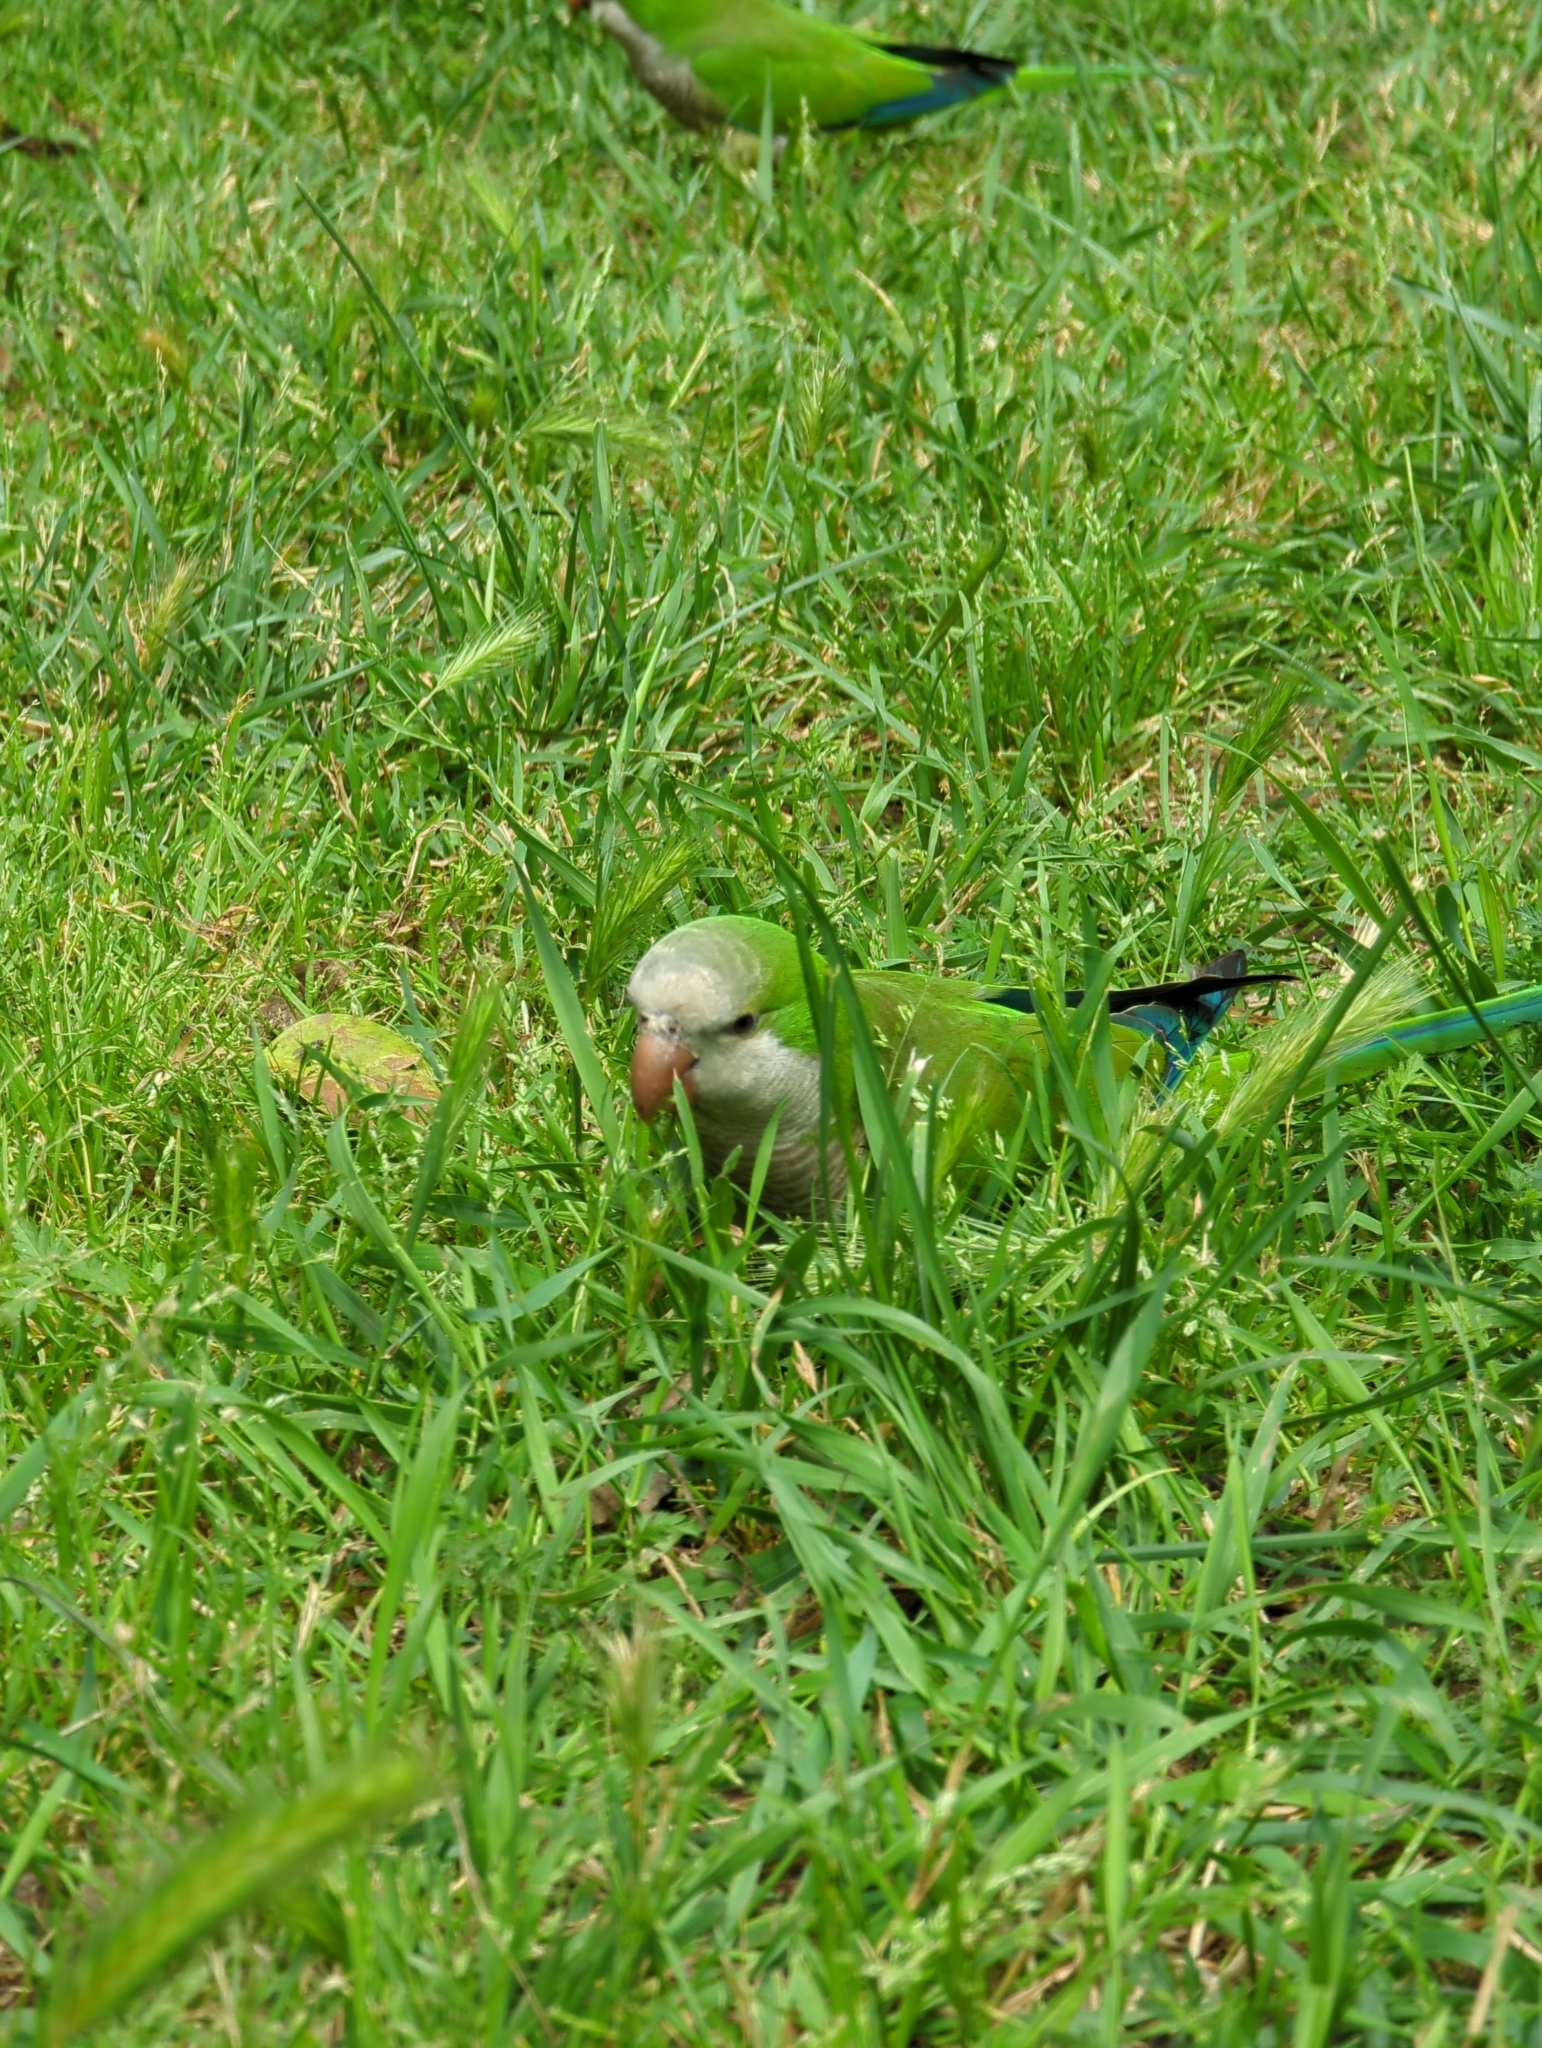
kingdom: Animalia
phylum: Chordata
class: Aves
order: Psittaciformes
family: Psittacidae
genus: Myiopsitta
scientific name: Myiopsitta monachus
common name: Monk parakeet
